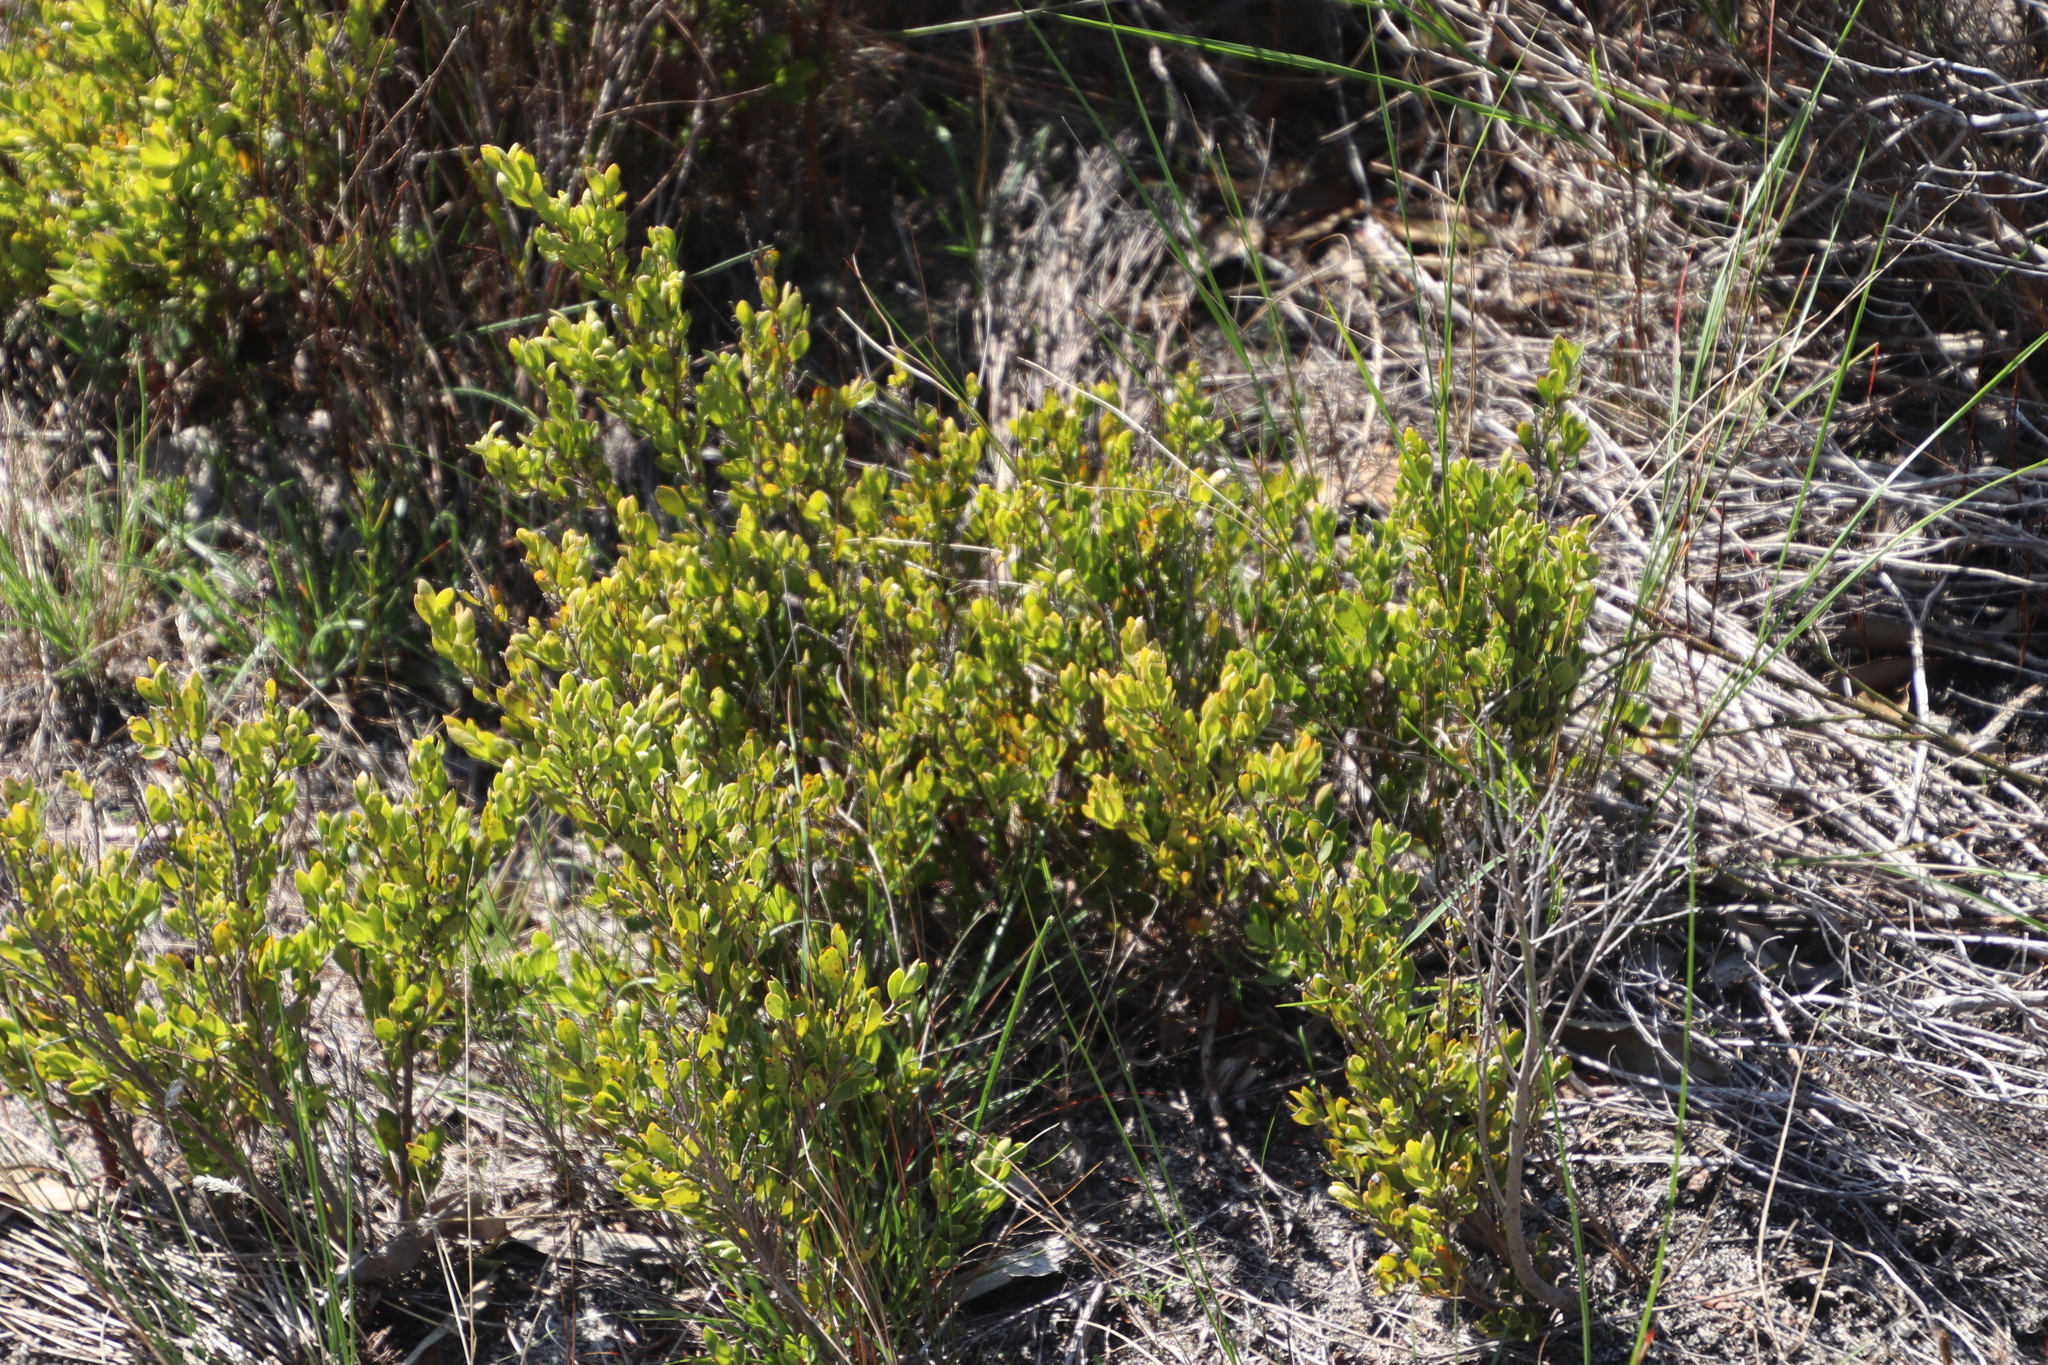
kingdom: Plantae
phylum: Tracheophyta
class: Magnoliopsida
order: Ericales
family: Ebenaceae
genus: Diospyros
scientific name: Diospyros glabra
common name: Fynbos star apple
